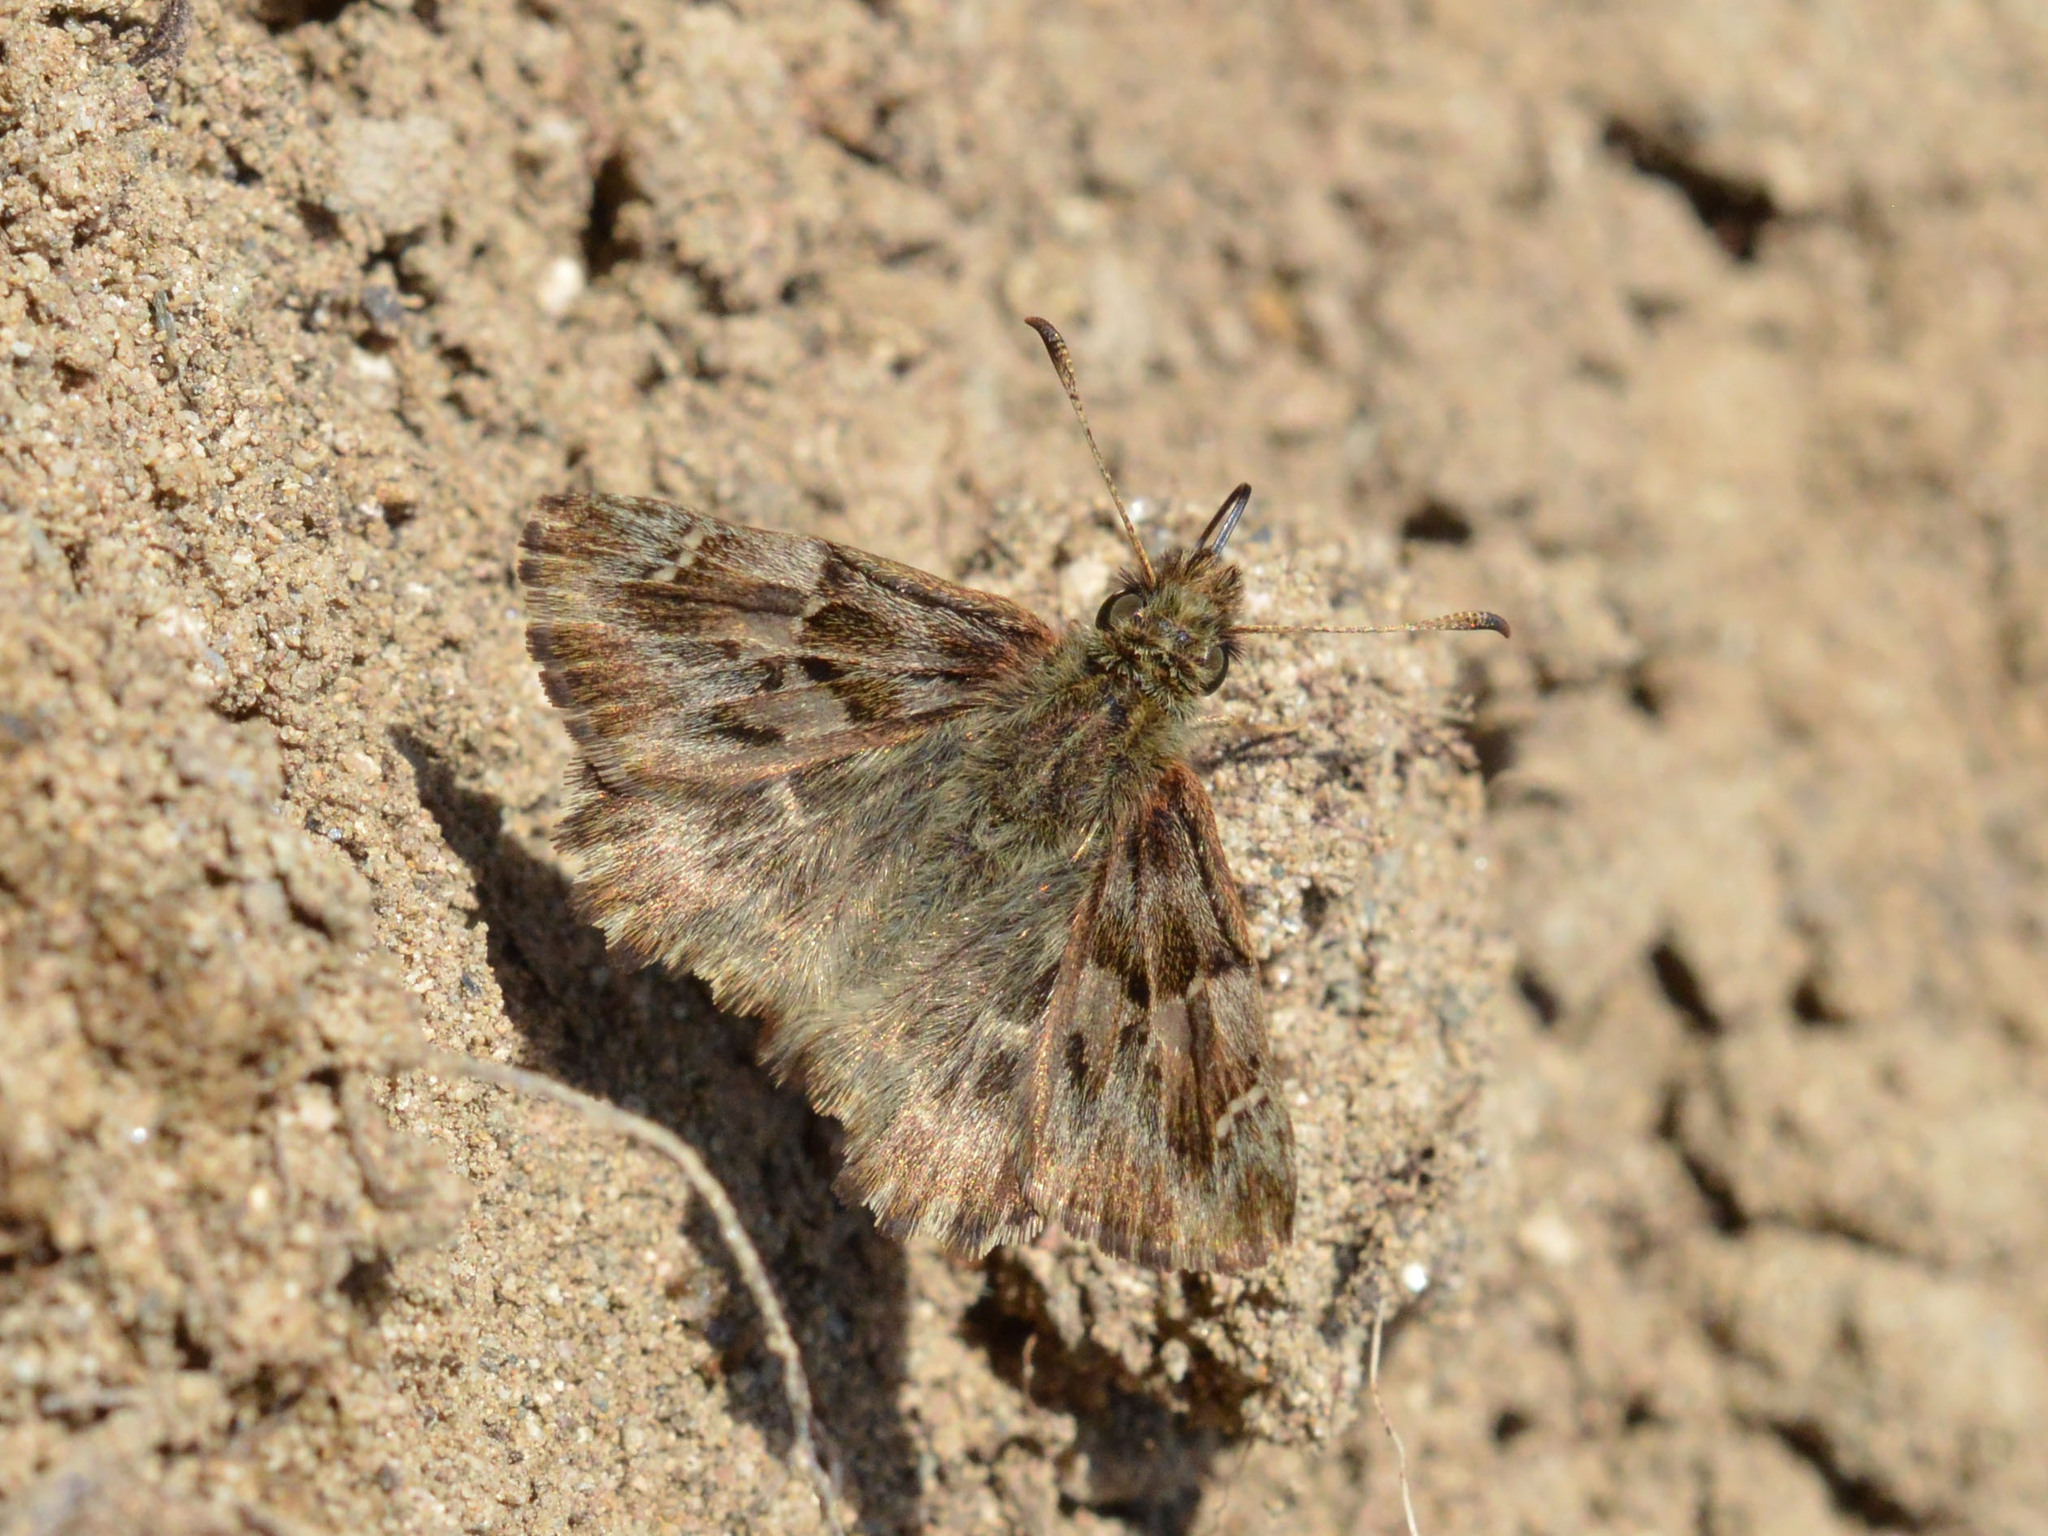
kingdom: Animalia
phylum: Arthropoda
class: Insecta
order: Lepidoptera
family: Hesperiidae
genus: Carcharodus
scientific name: Carcharodus alceae
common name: Mallow skipper
